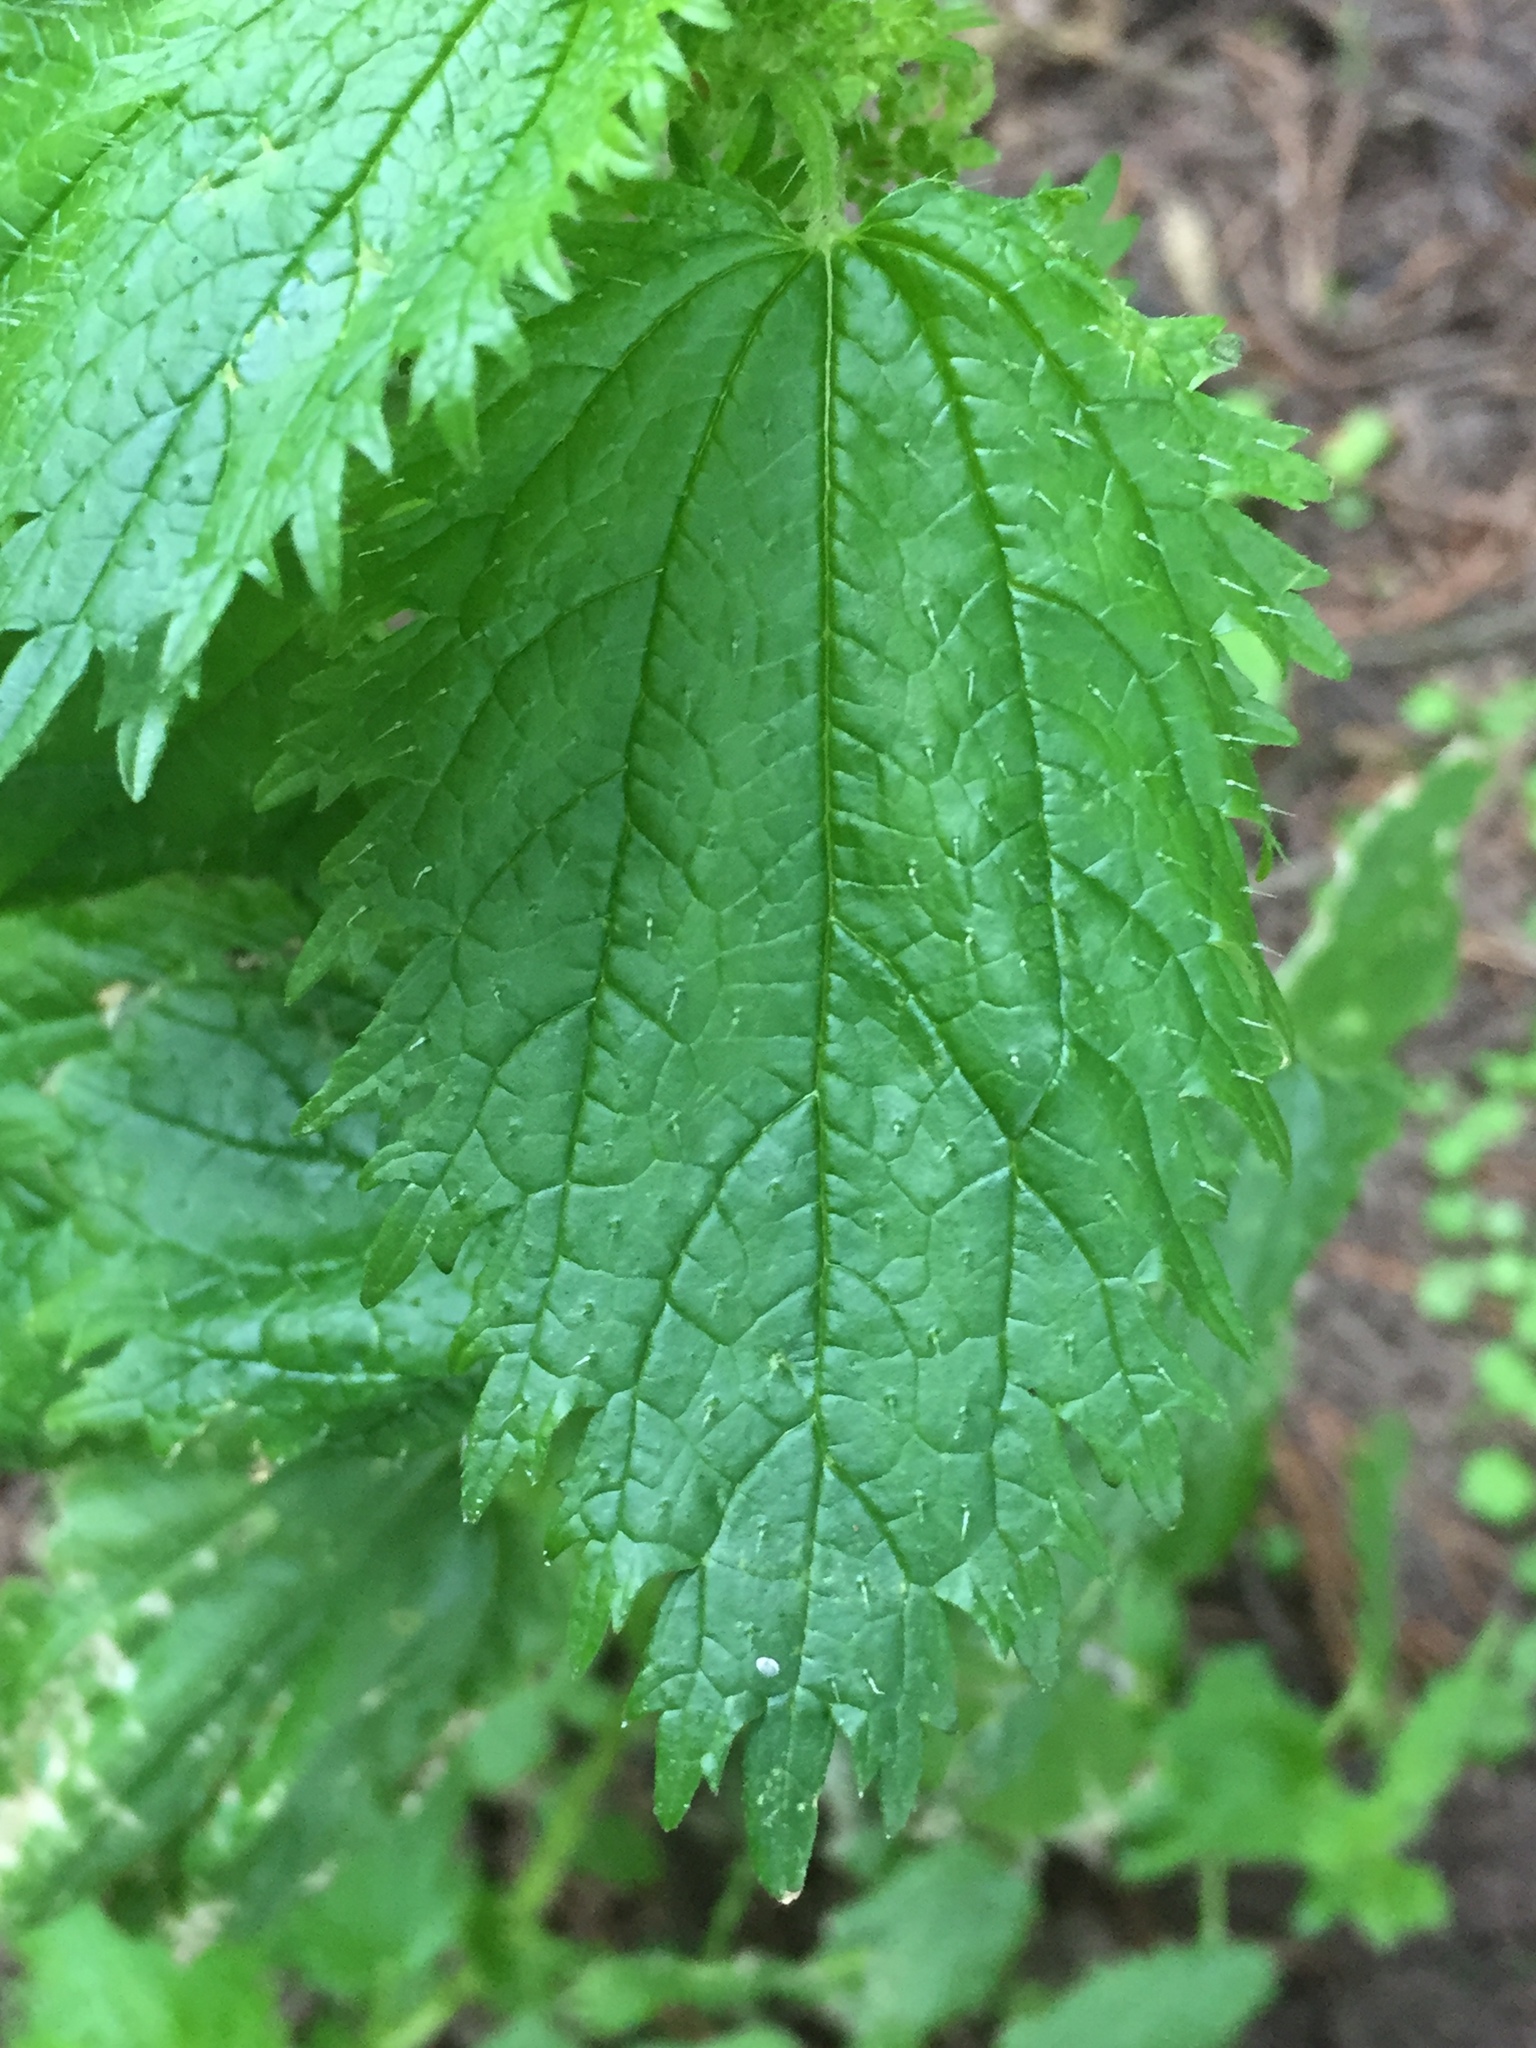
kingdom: Plantae
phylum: Tracheophyta
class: Magnoliopsida
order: Rosales
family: Urticaceae
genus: Urtica
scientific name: Urtica urens
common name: Dwarf nettle
